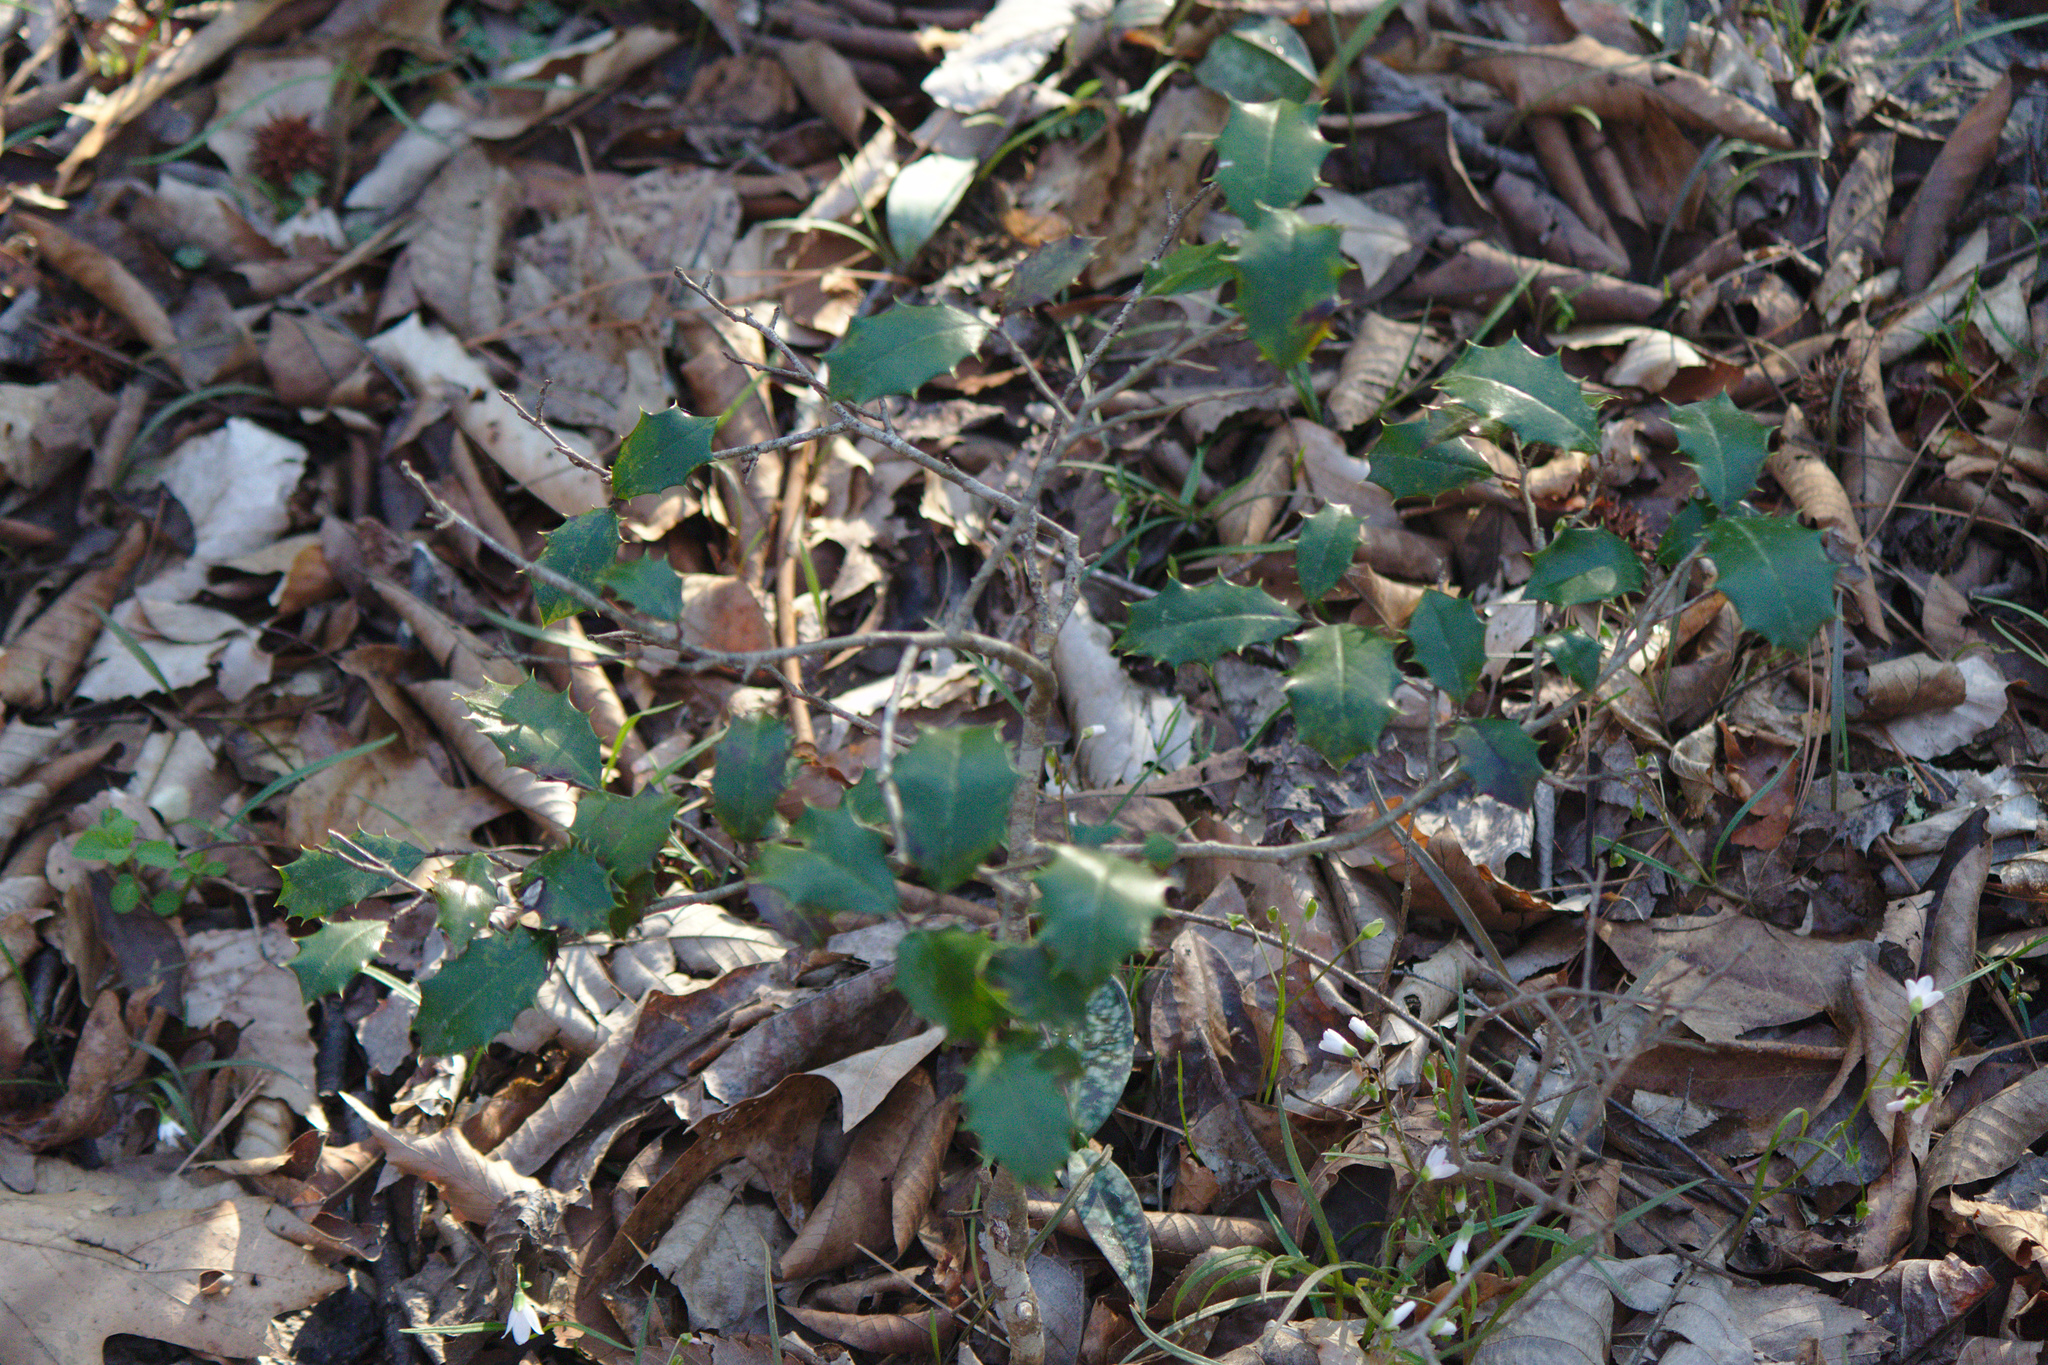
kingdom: Plantae
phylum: Tracheophyta
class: Magnoliopsida
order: Aquifoliales
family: Aquifoliaceae
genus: Ilex
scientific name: Ilex opaca
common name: American holly
